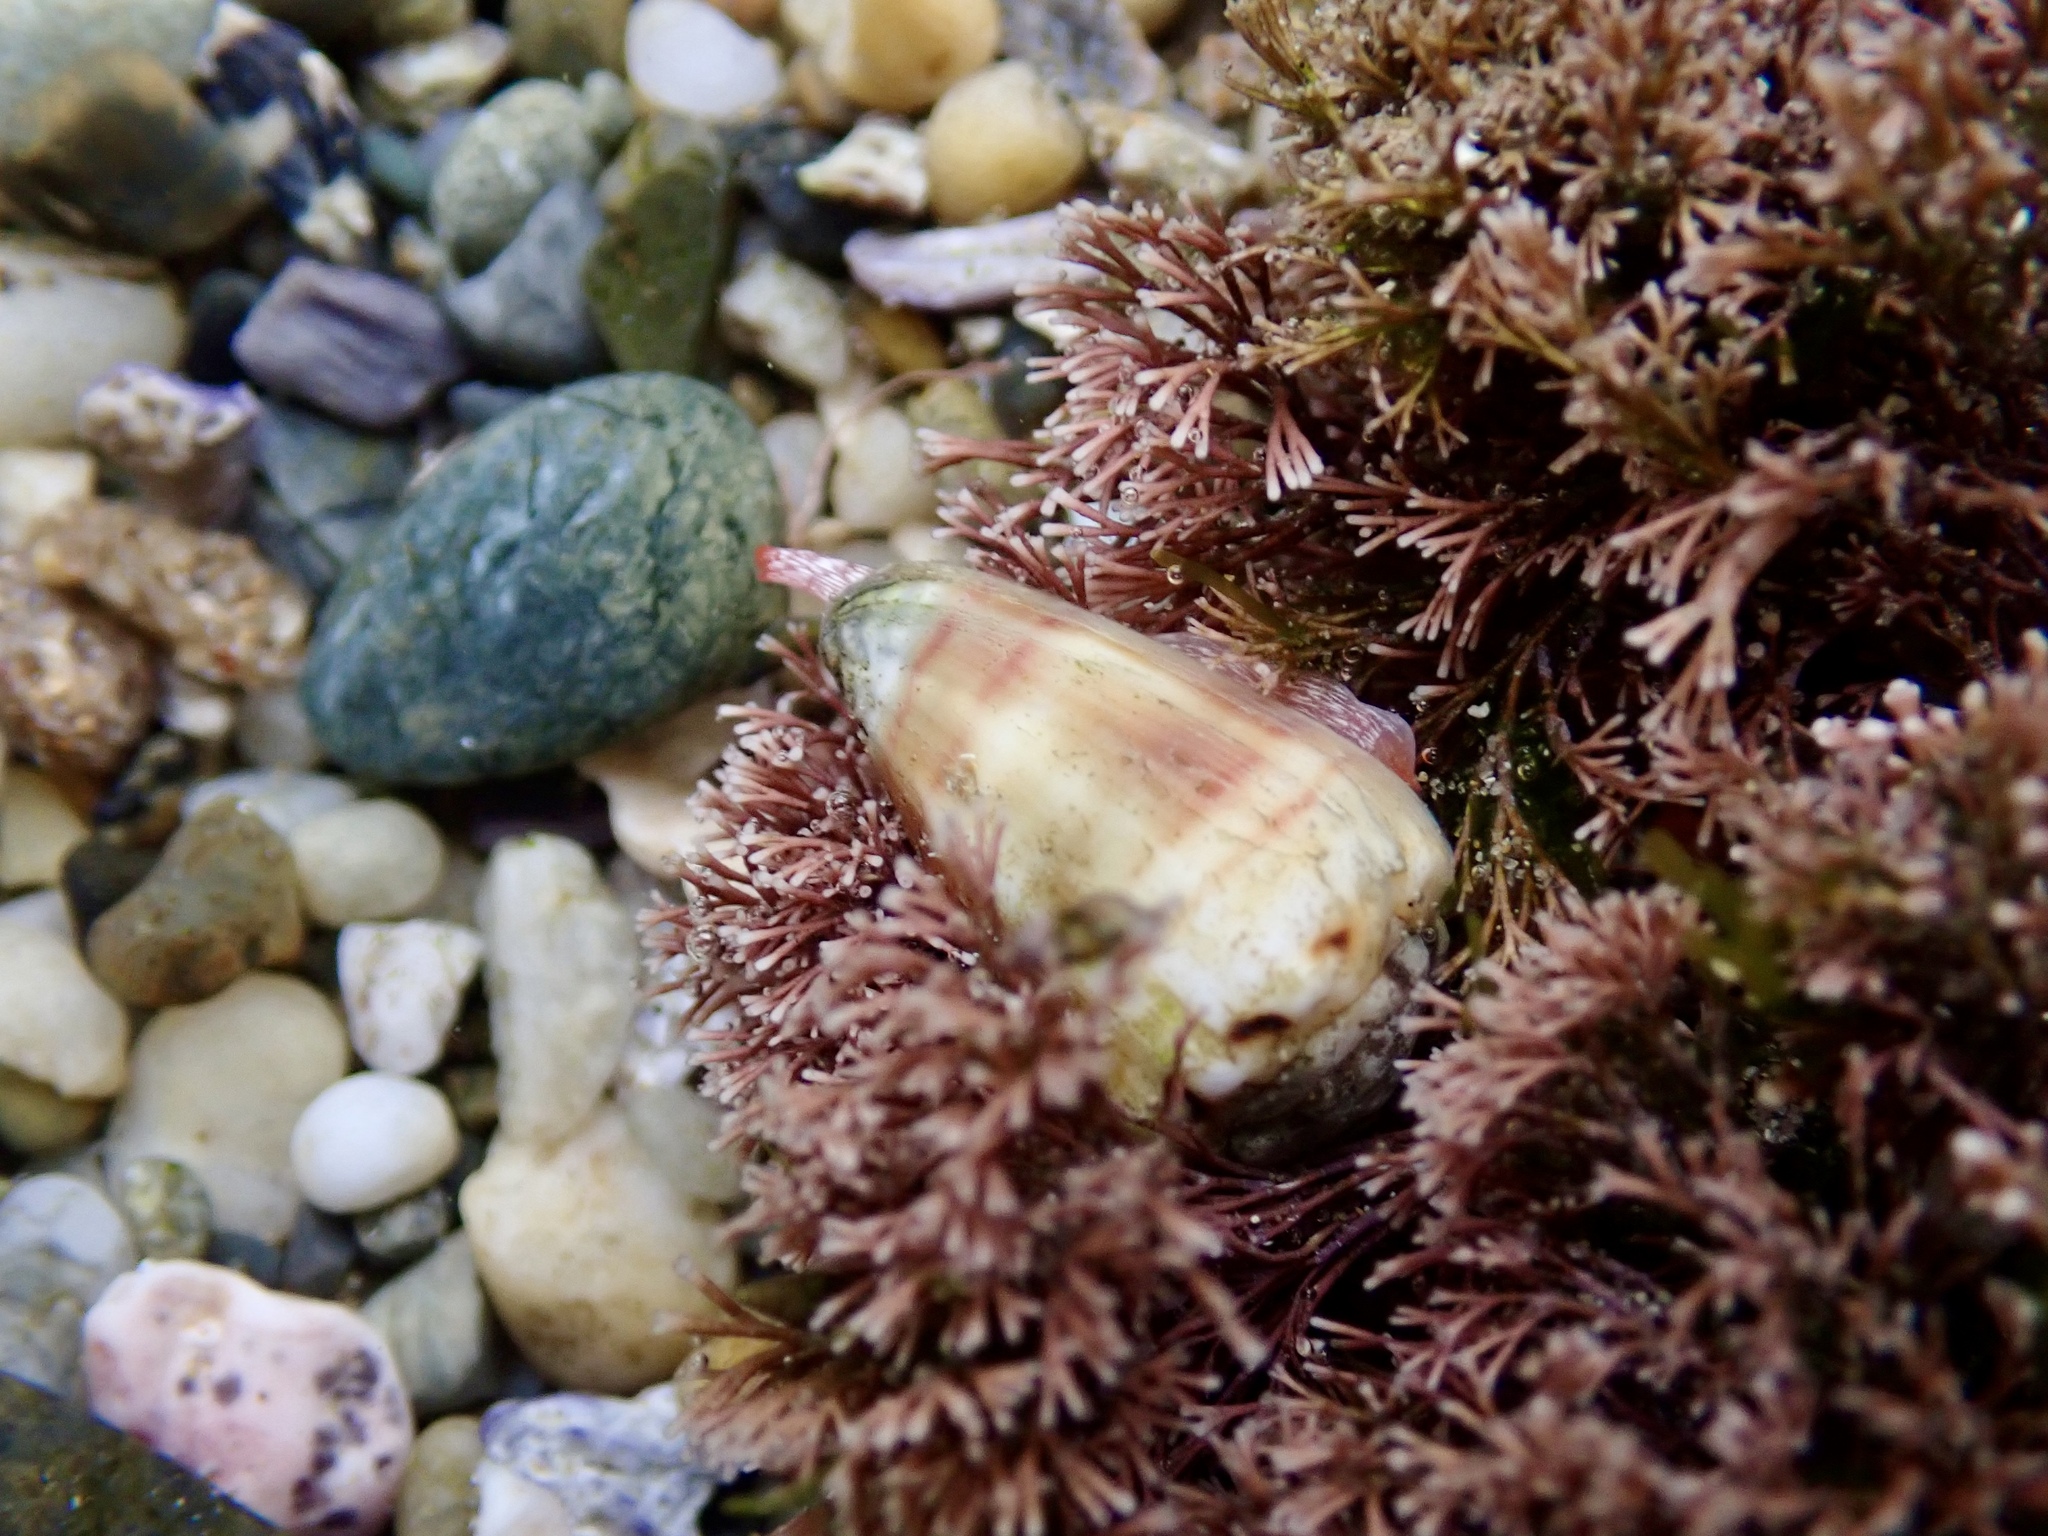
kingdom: Animalia
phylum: Mollusca
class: Gastropoda
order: Neogastropoda
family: Conidae
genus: Conus
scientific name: Conus musicus
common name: Music cone
